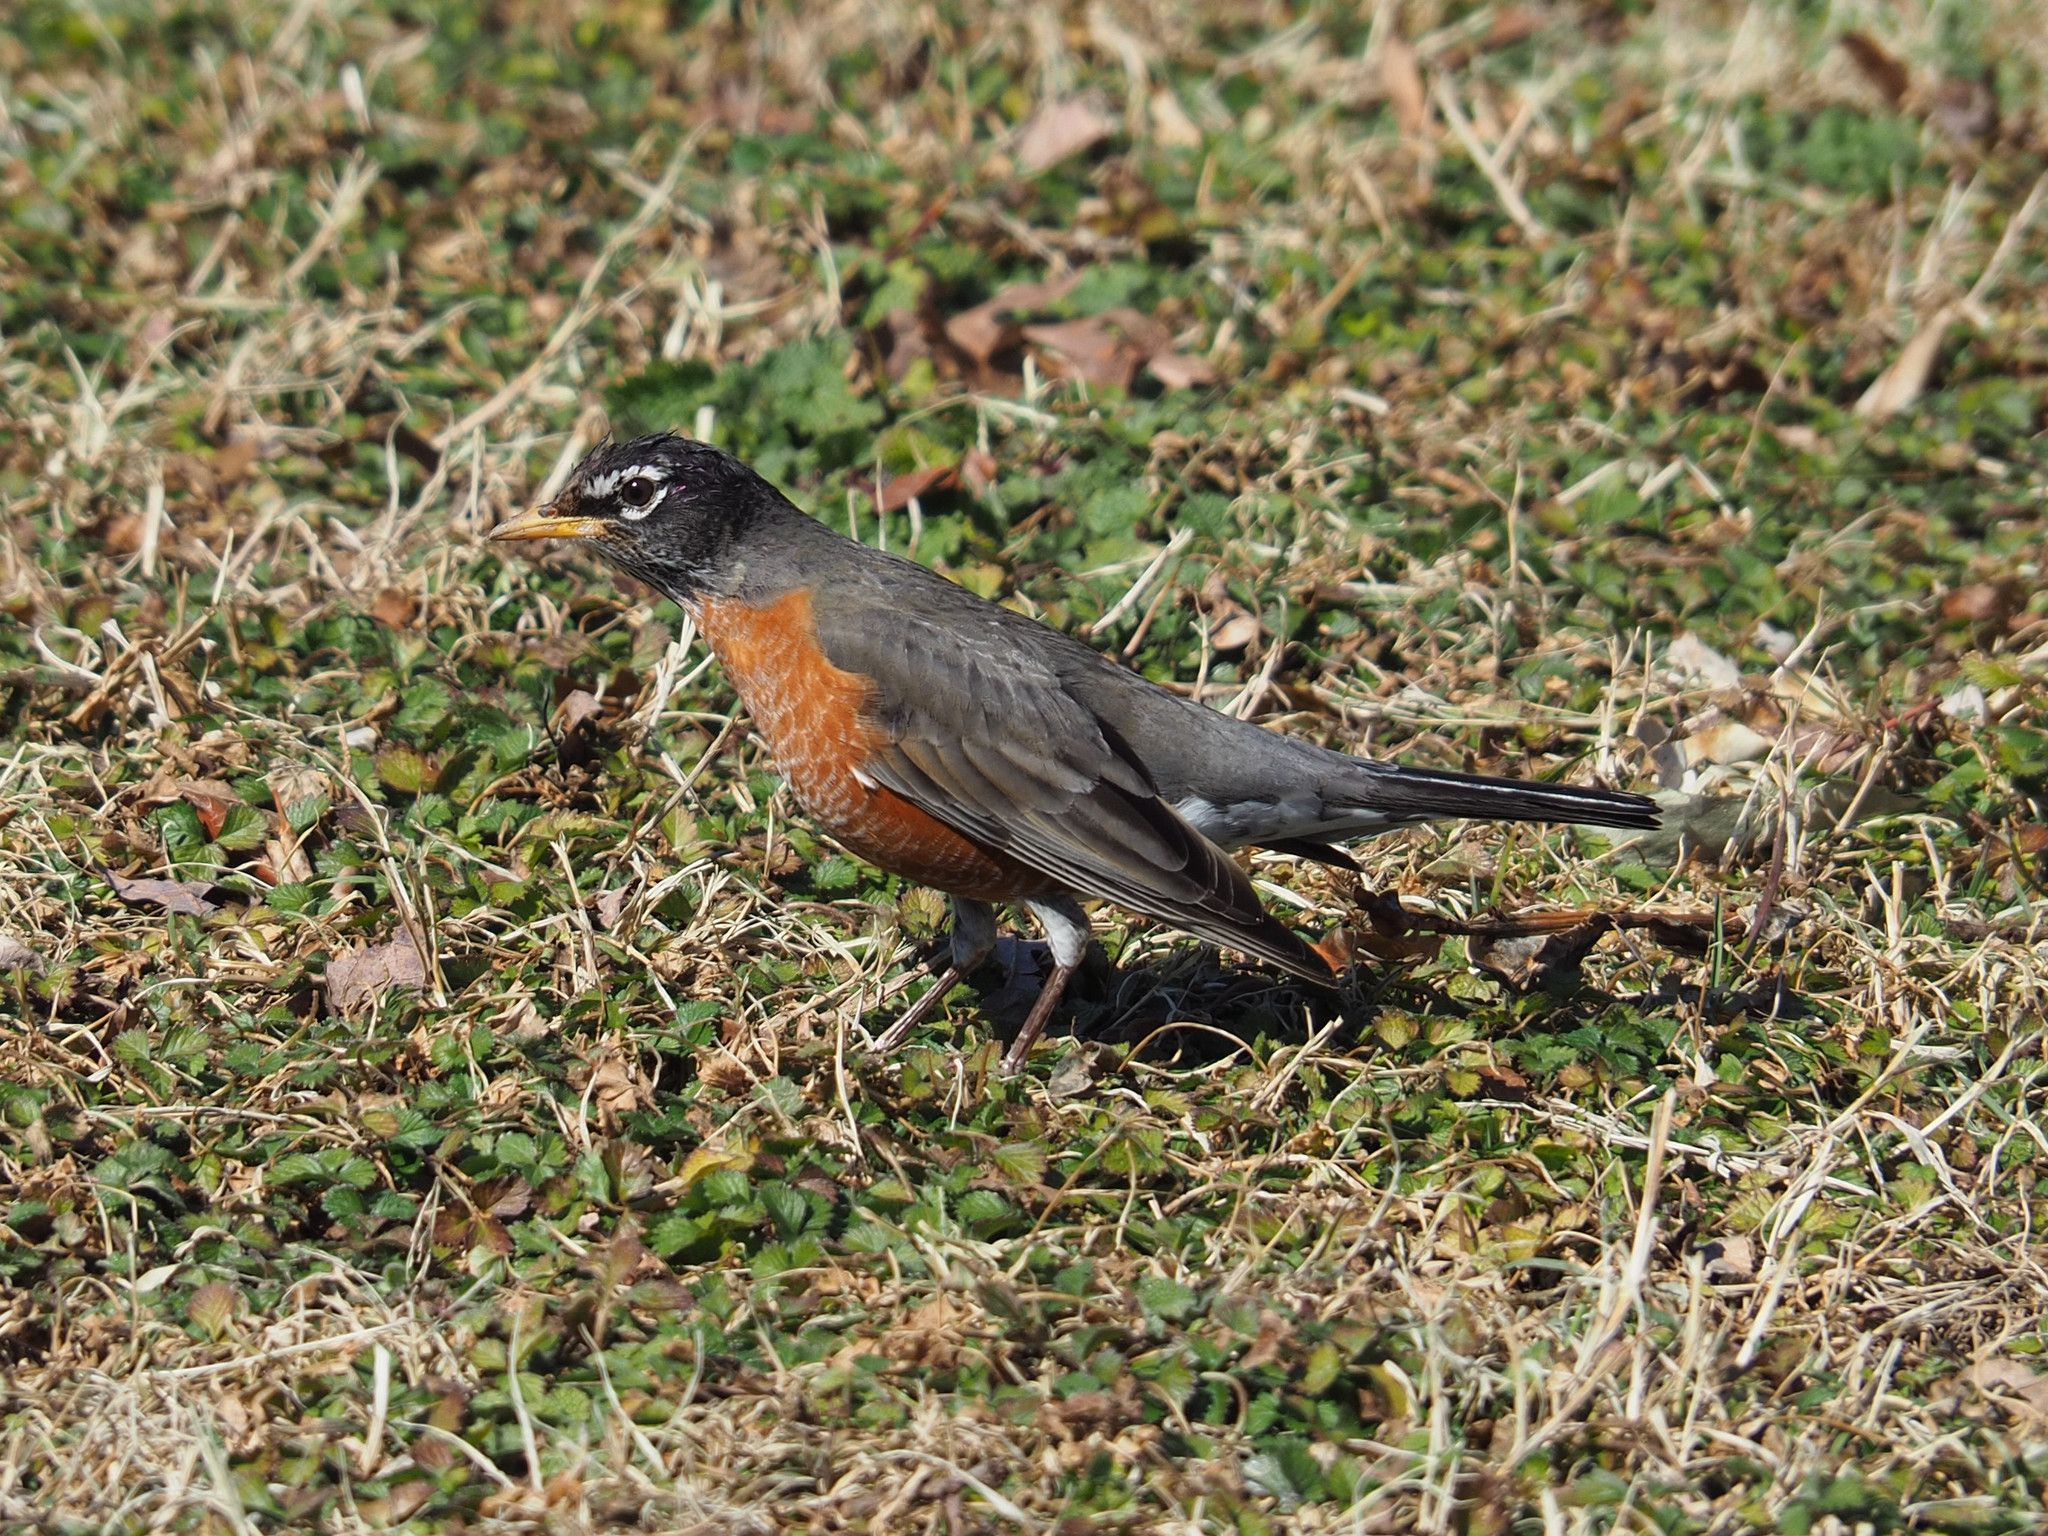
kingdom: Animalia
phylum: Chordata
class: Aves
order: Passeriformes
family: Turdidae
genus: Turdus
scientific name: Turdus migratorius
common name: American robin
